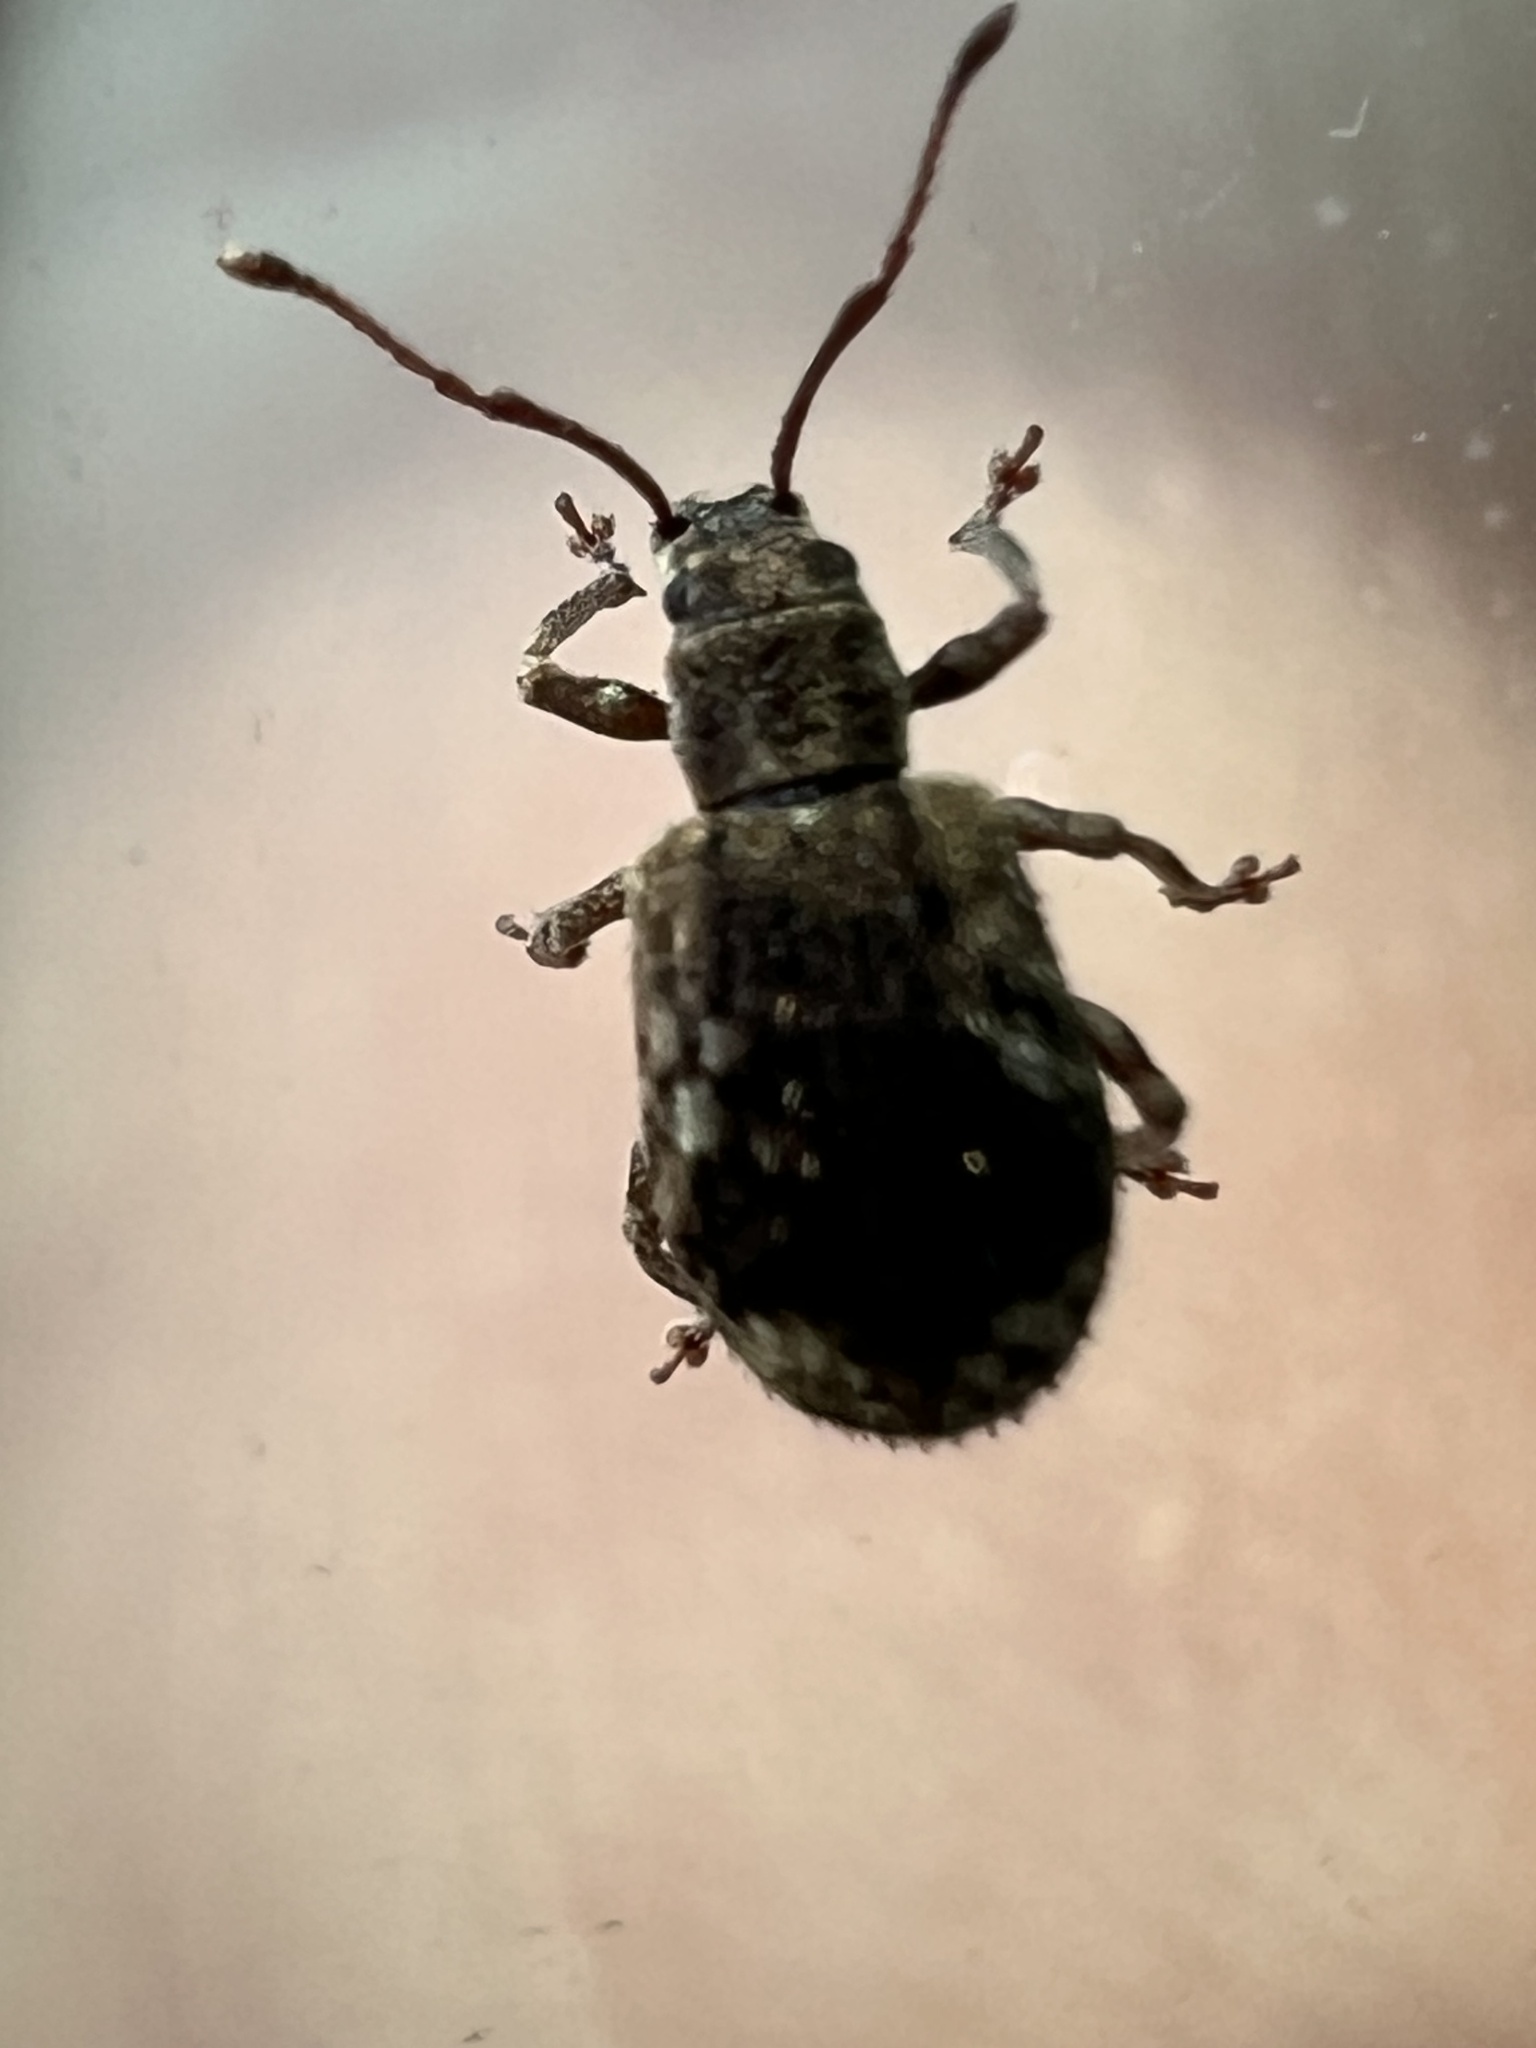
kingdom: Animalia
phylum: Arthropoda
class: Insecta
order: Coleoptera
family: Curculionidae
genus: Pseudoedophrys
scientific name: Pseudoedophrys hilleri
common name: Weevil
